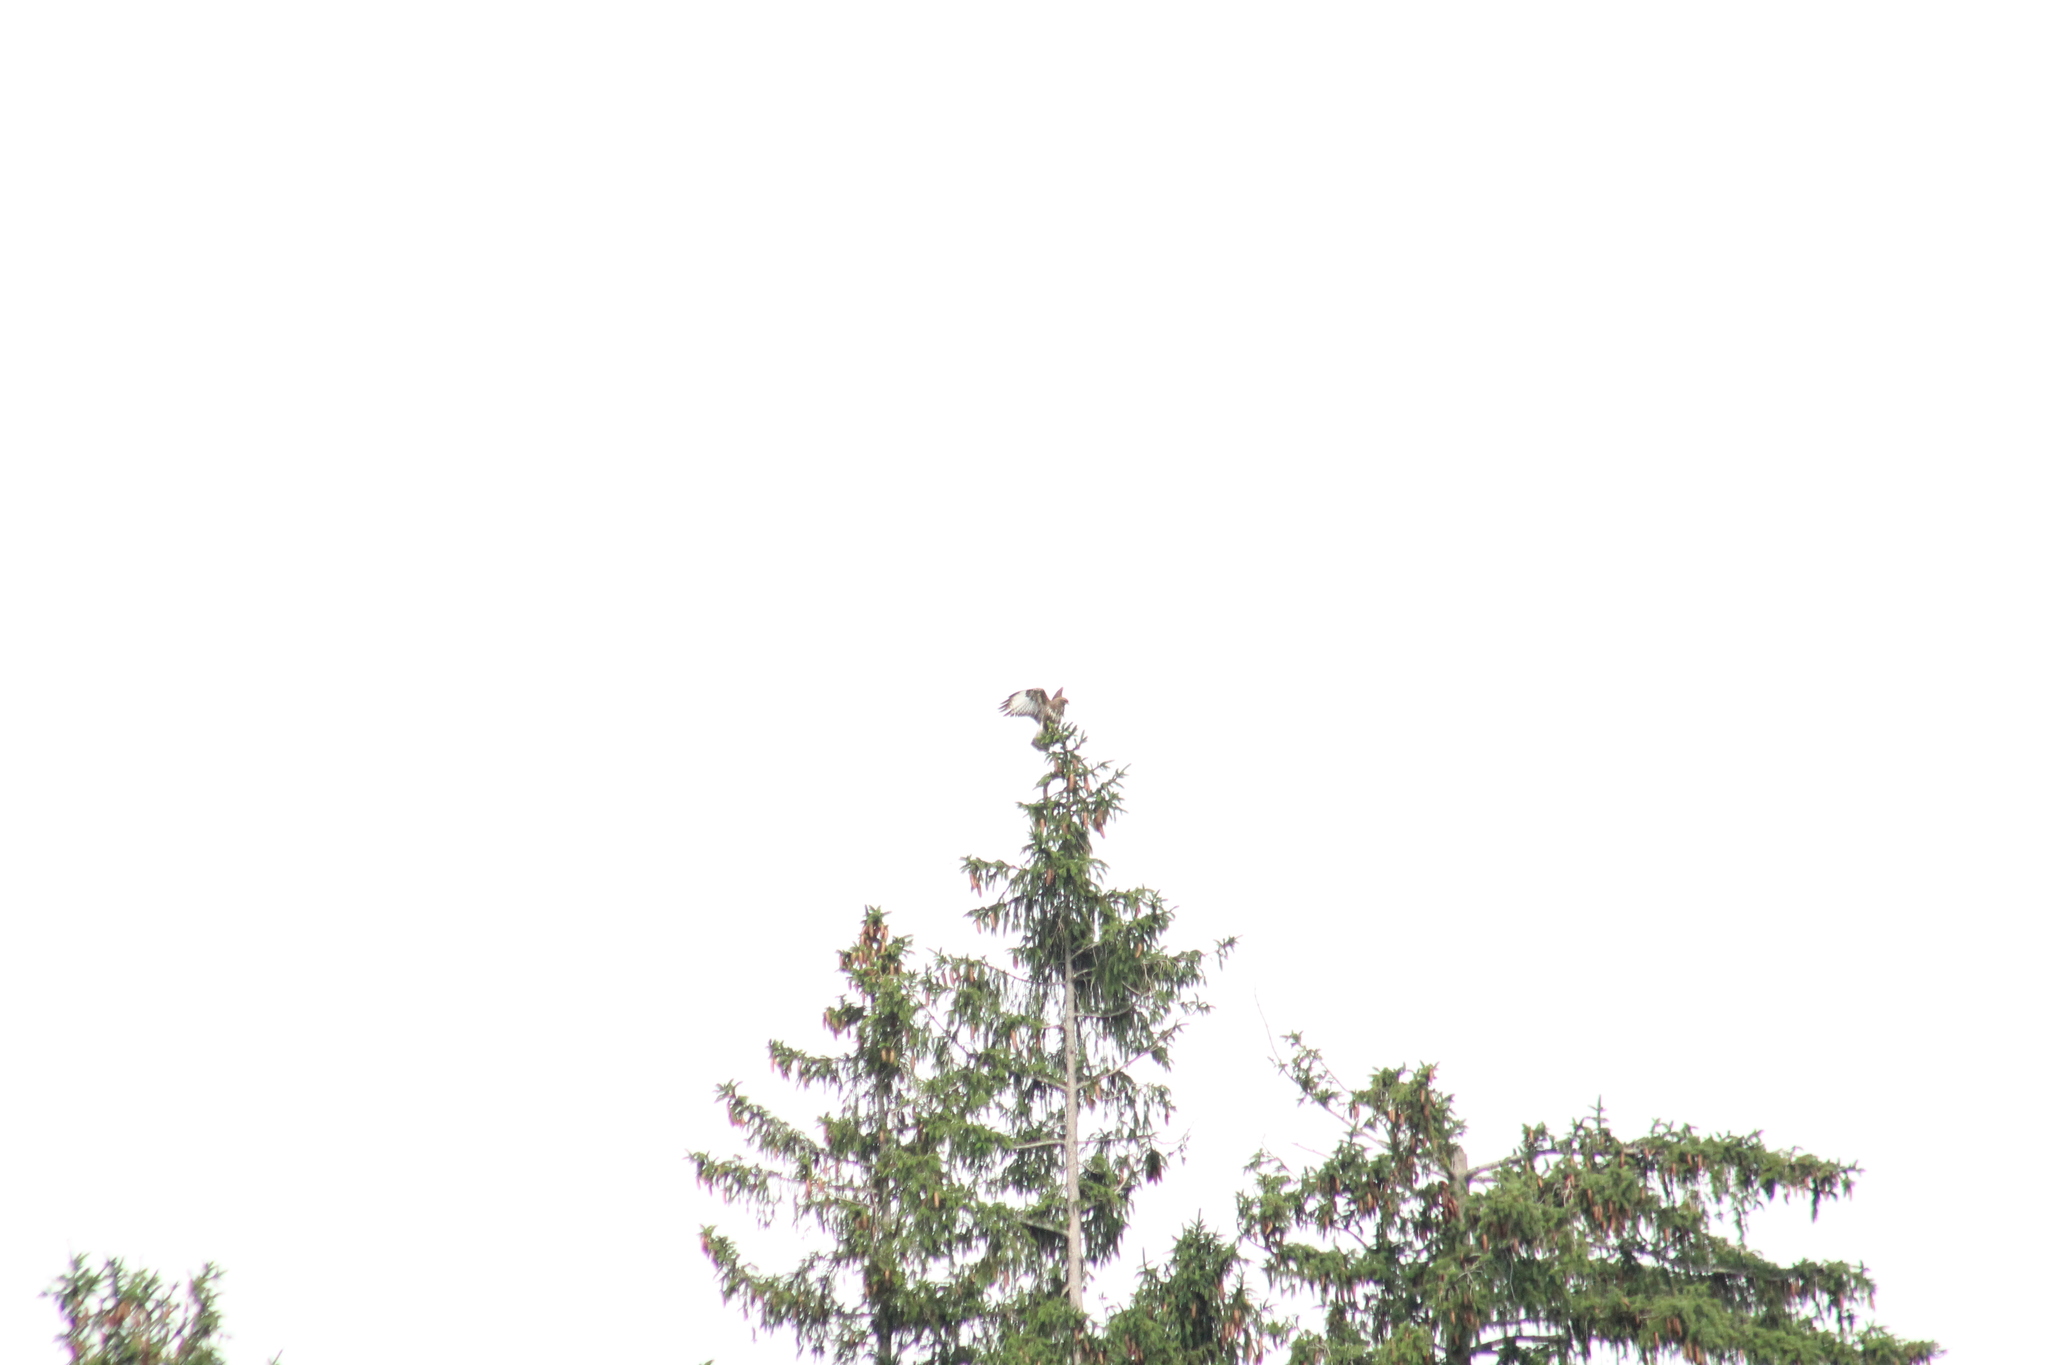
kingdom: Animalia
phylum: Chordata
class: Aves
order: Accipitriformes
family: Accipitridae
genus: Buteo
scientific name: Buteo buteo
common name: Common buzzard
